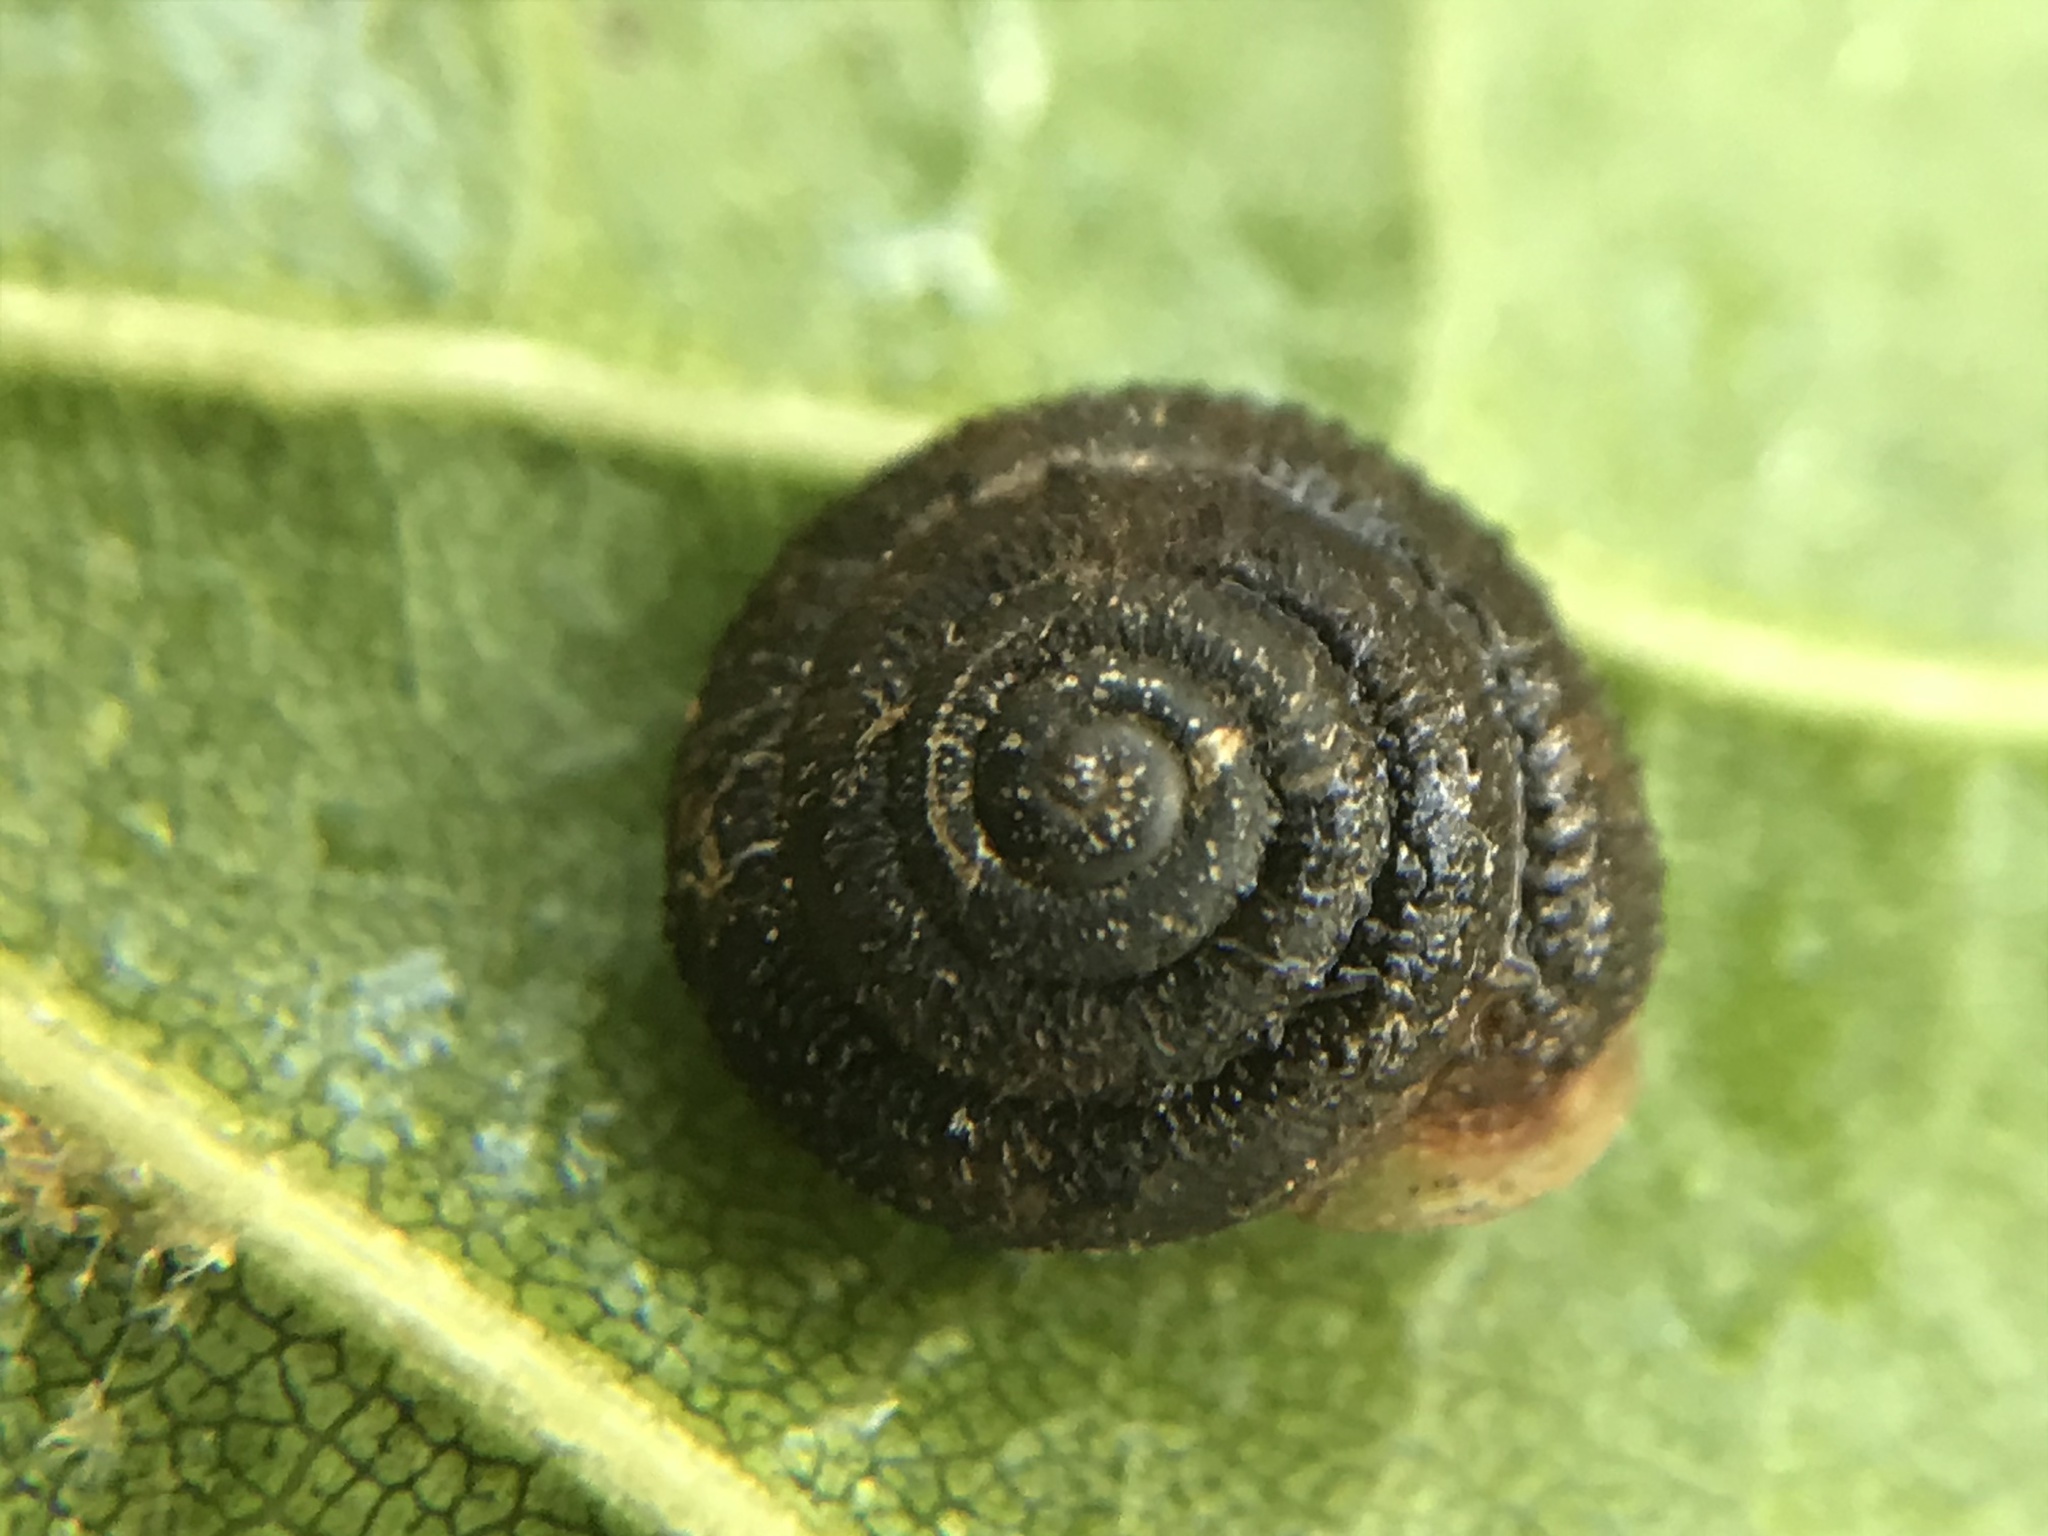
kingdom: Animalia
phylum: Mollusca
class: Gastropoda
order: Stylommatophora
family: Polygyridae
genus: Trilobopsis
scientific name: Trilobopsis loricata
